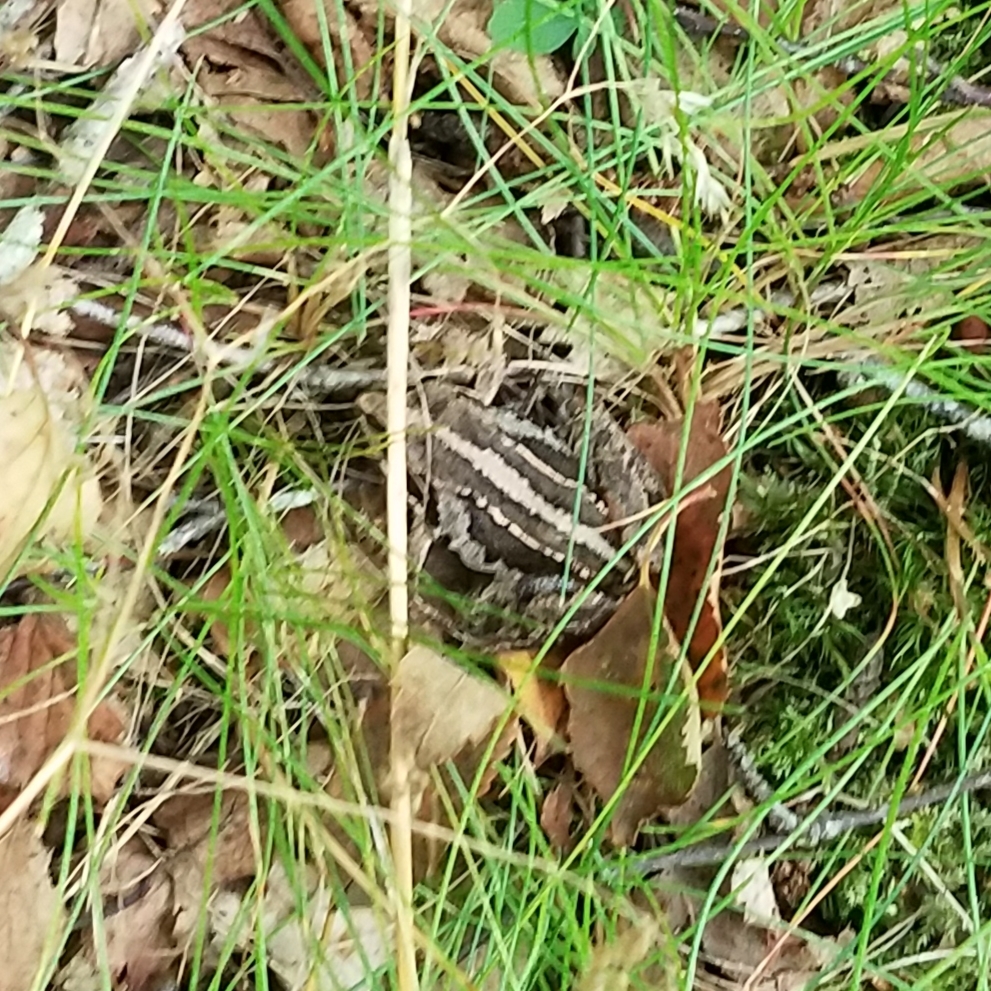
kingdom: Animalia
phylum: Chordata
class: Amphibia
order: Anura
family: Ranidae
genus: Rana
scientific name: Rana arvalis
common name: Moor frog
